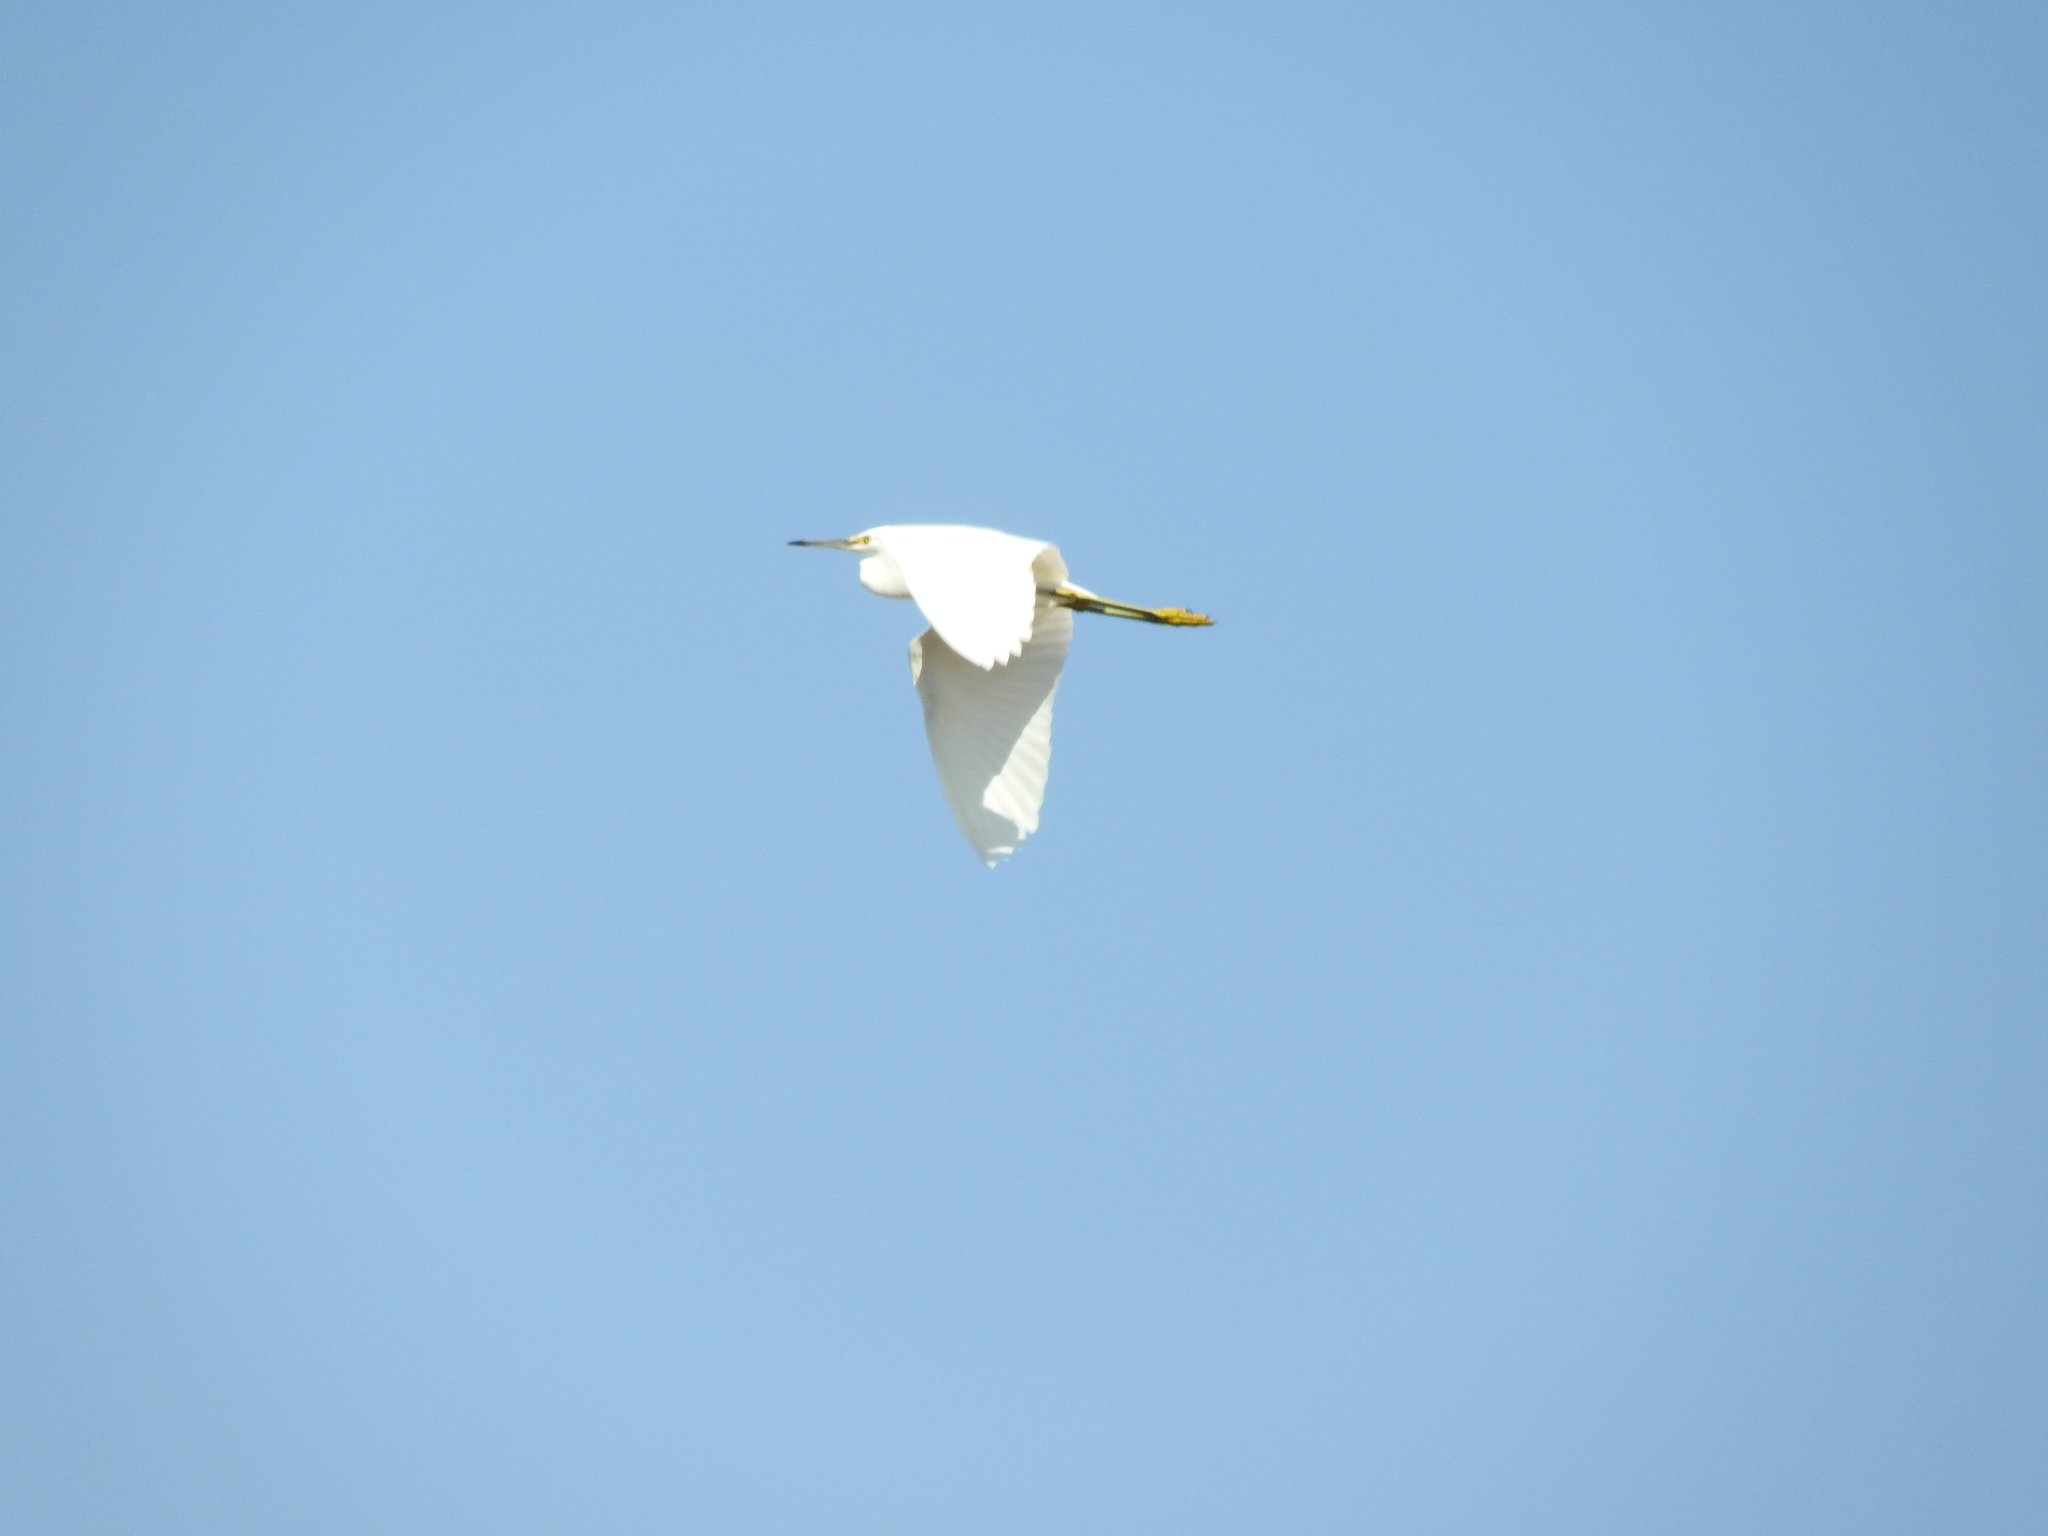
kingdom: Animalia
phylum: Chordata
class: Aves
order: Pelecaniformes
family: Ardeidae
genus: Egretta
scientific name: Egretta thula
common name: Snowy egret
